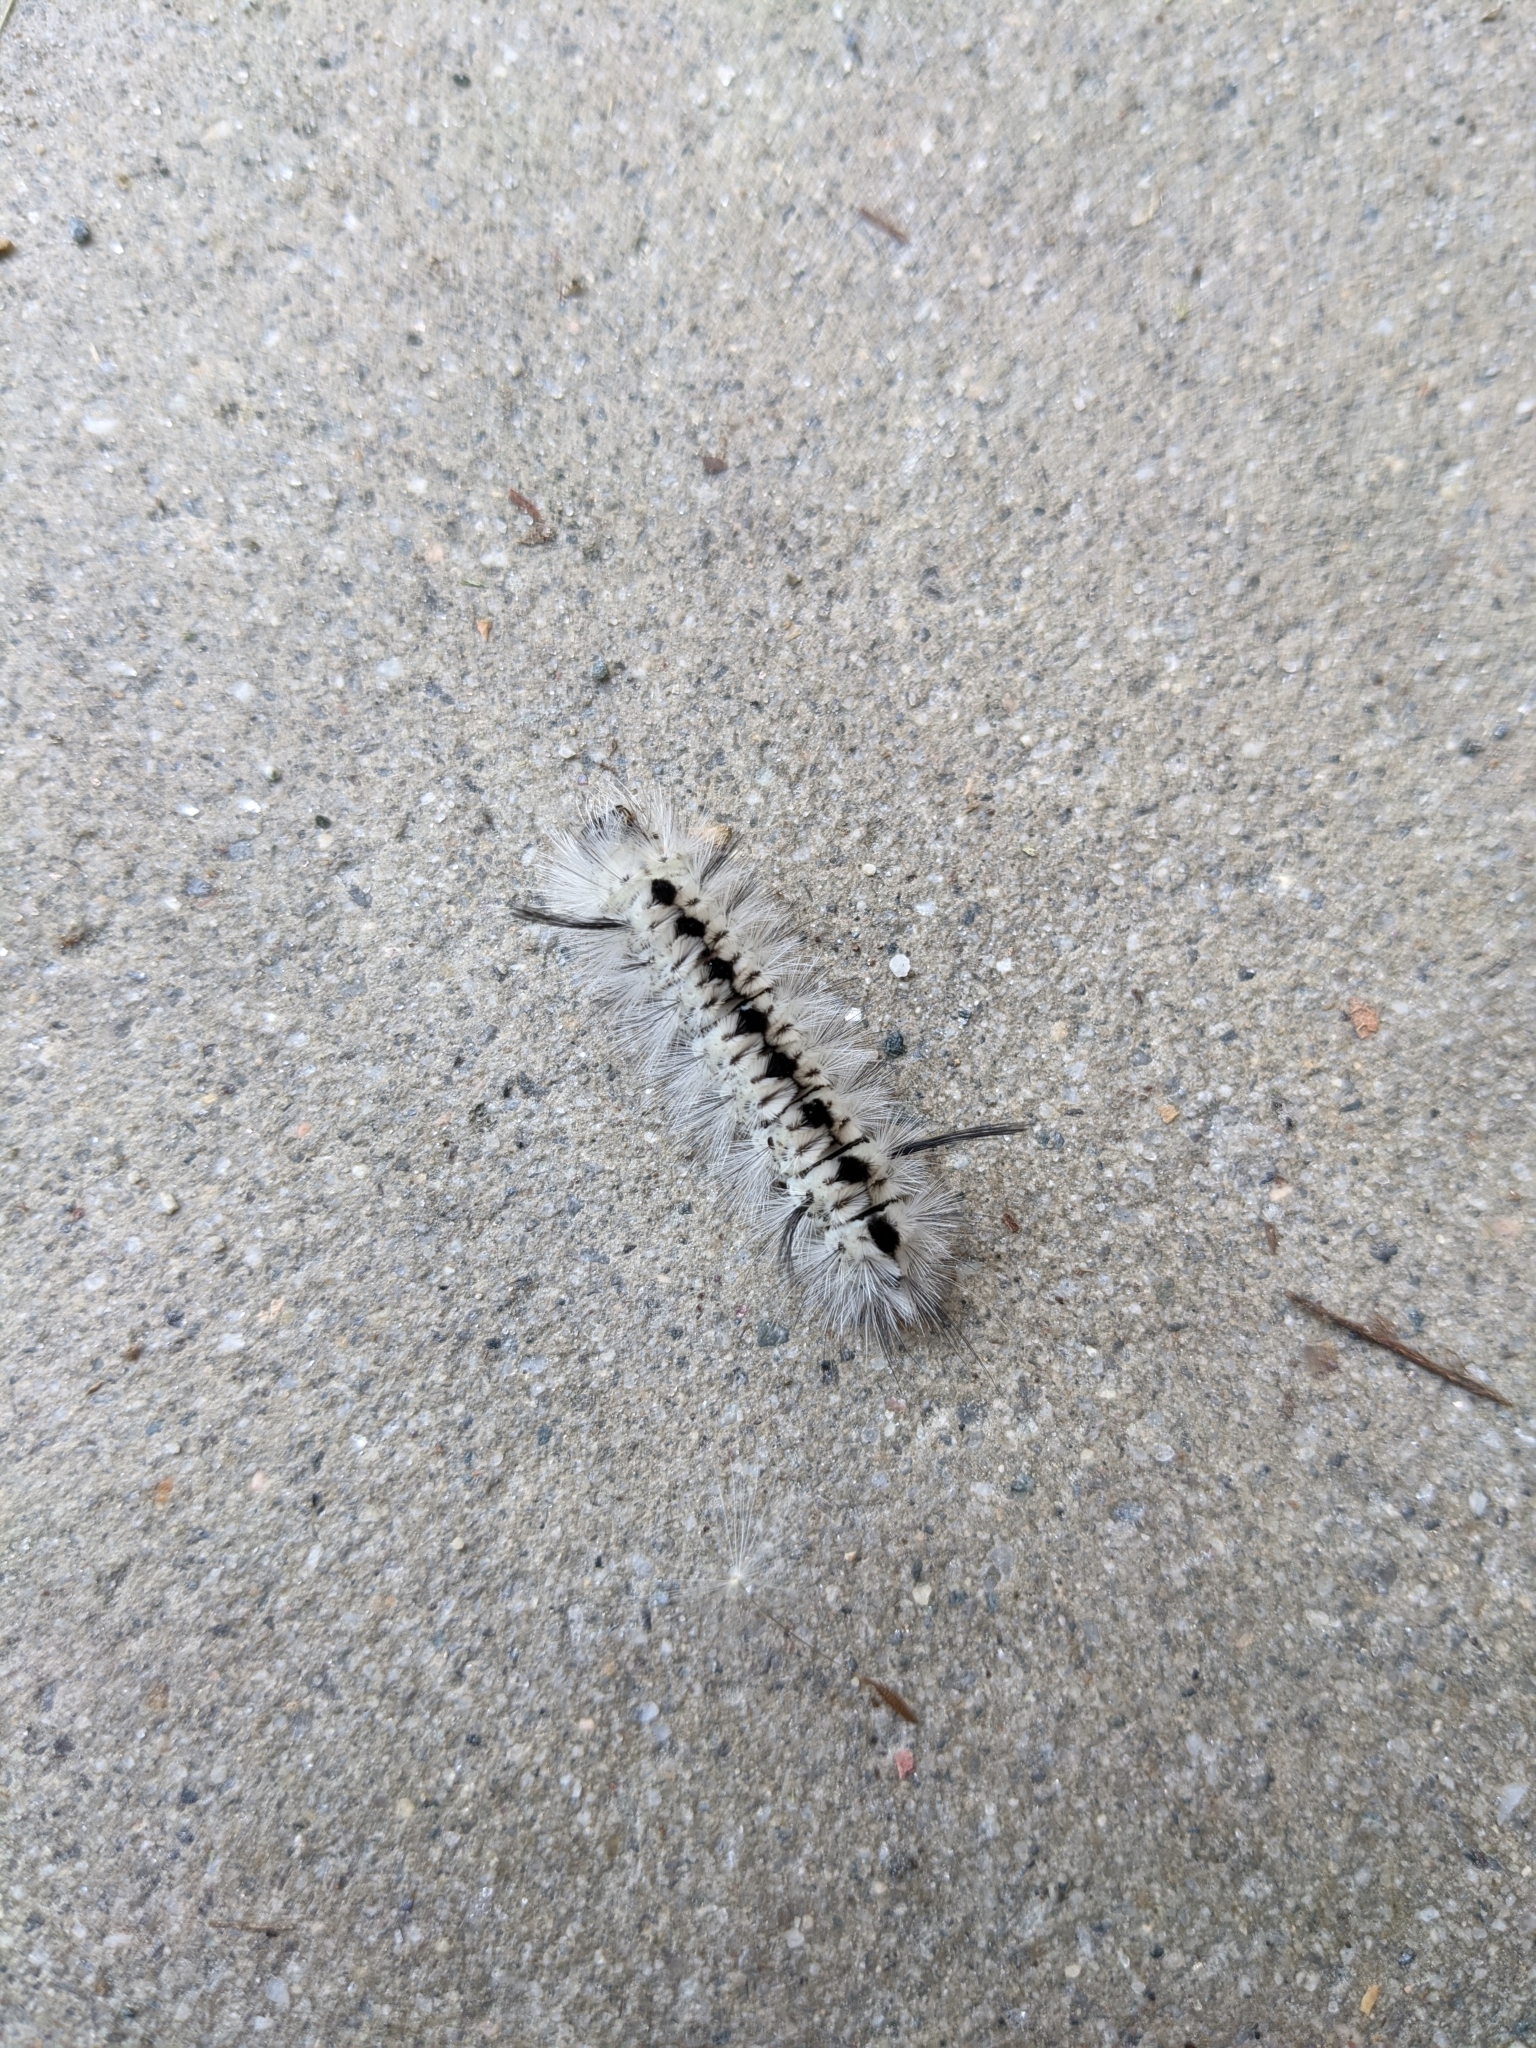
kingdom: Animalia
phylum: Arthropoda
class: Insecta
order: Lepidoptera
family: Erebidae
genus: Lophocampa
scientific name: Lophocampa caryae
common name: Hickory tussock moth
